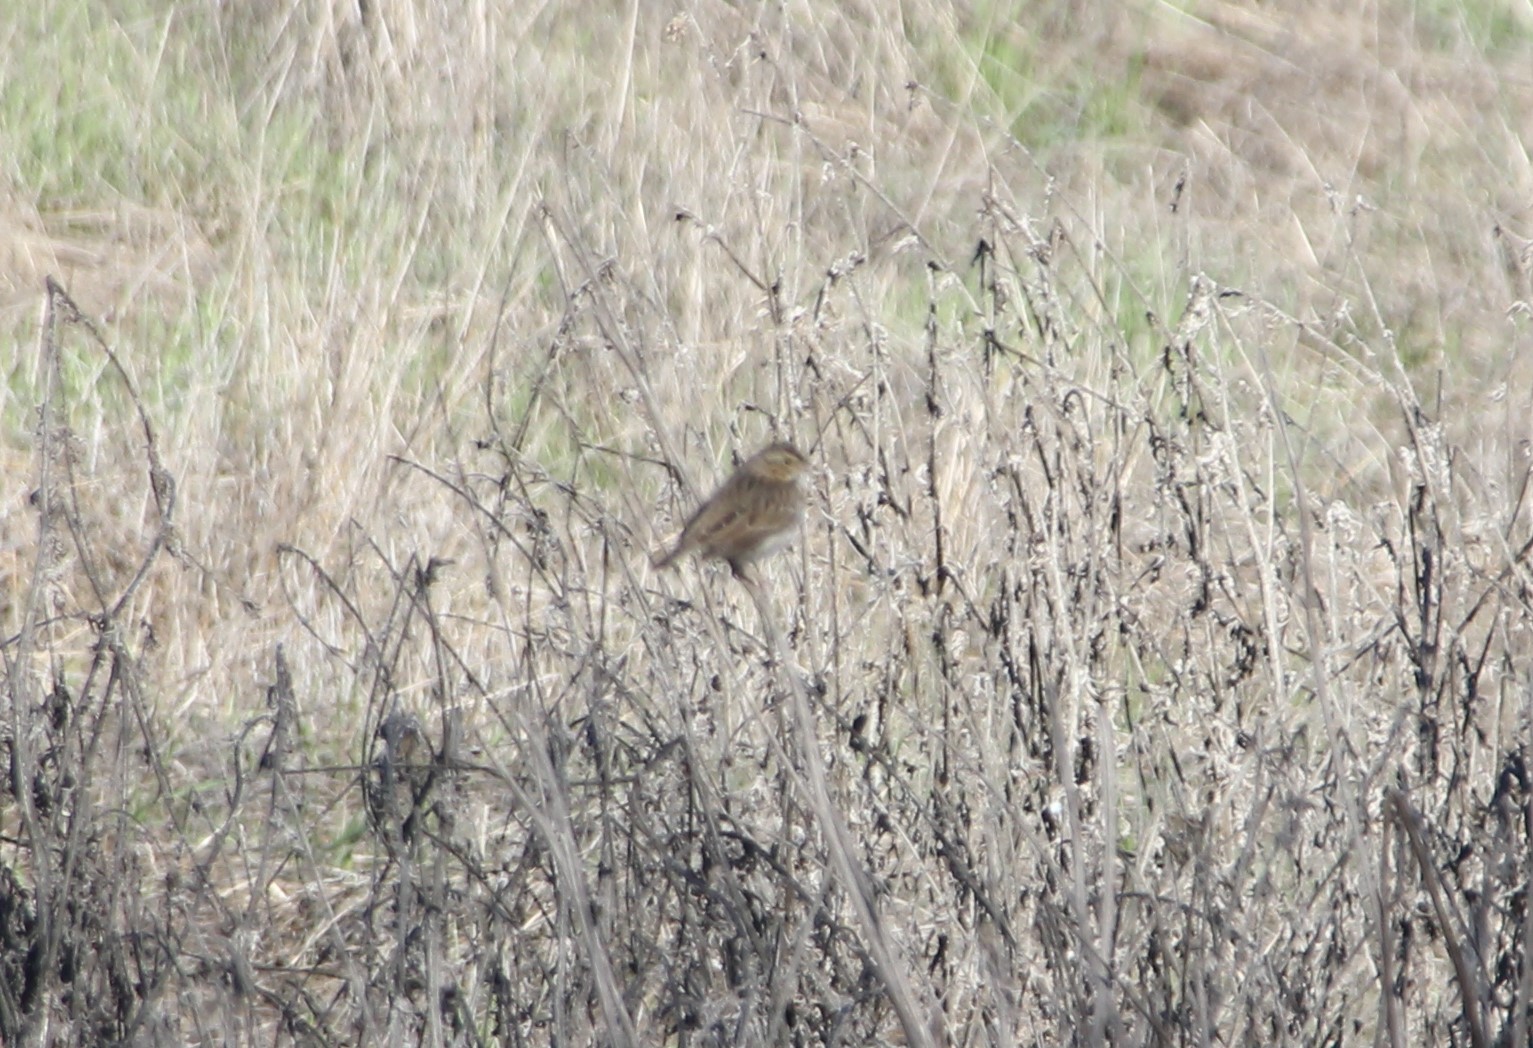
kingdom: Animalia
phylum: Chordata
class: Aves
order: Passeriformes
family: Passerellidae
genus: Passerculus
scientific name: Passerculus sandwichensis
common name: Savannah sparrow
